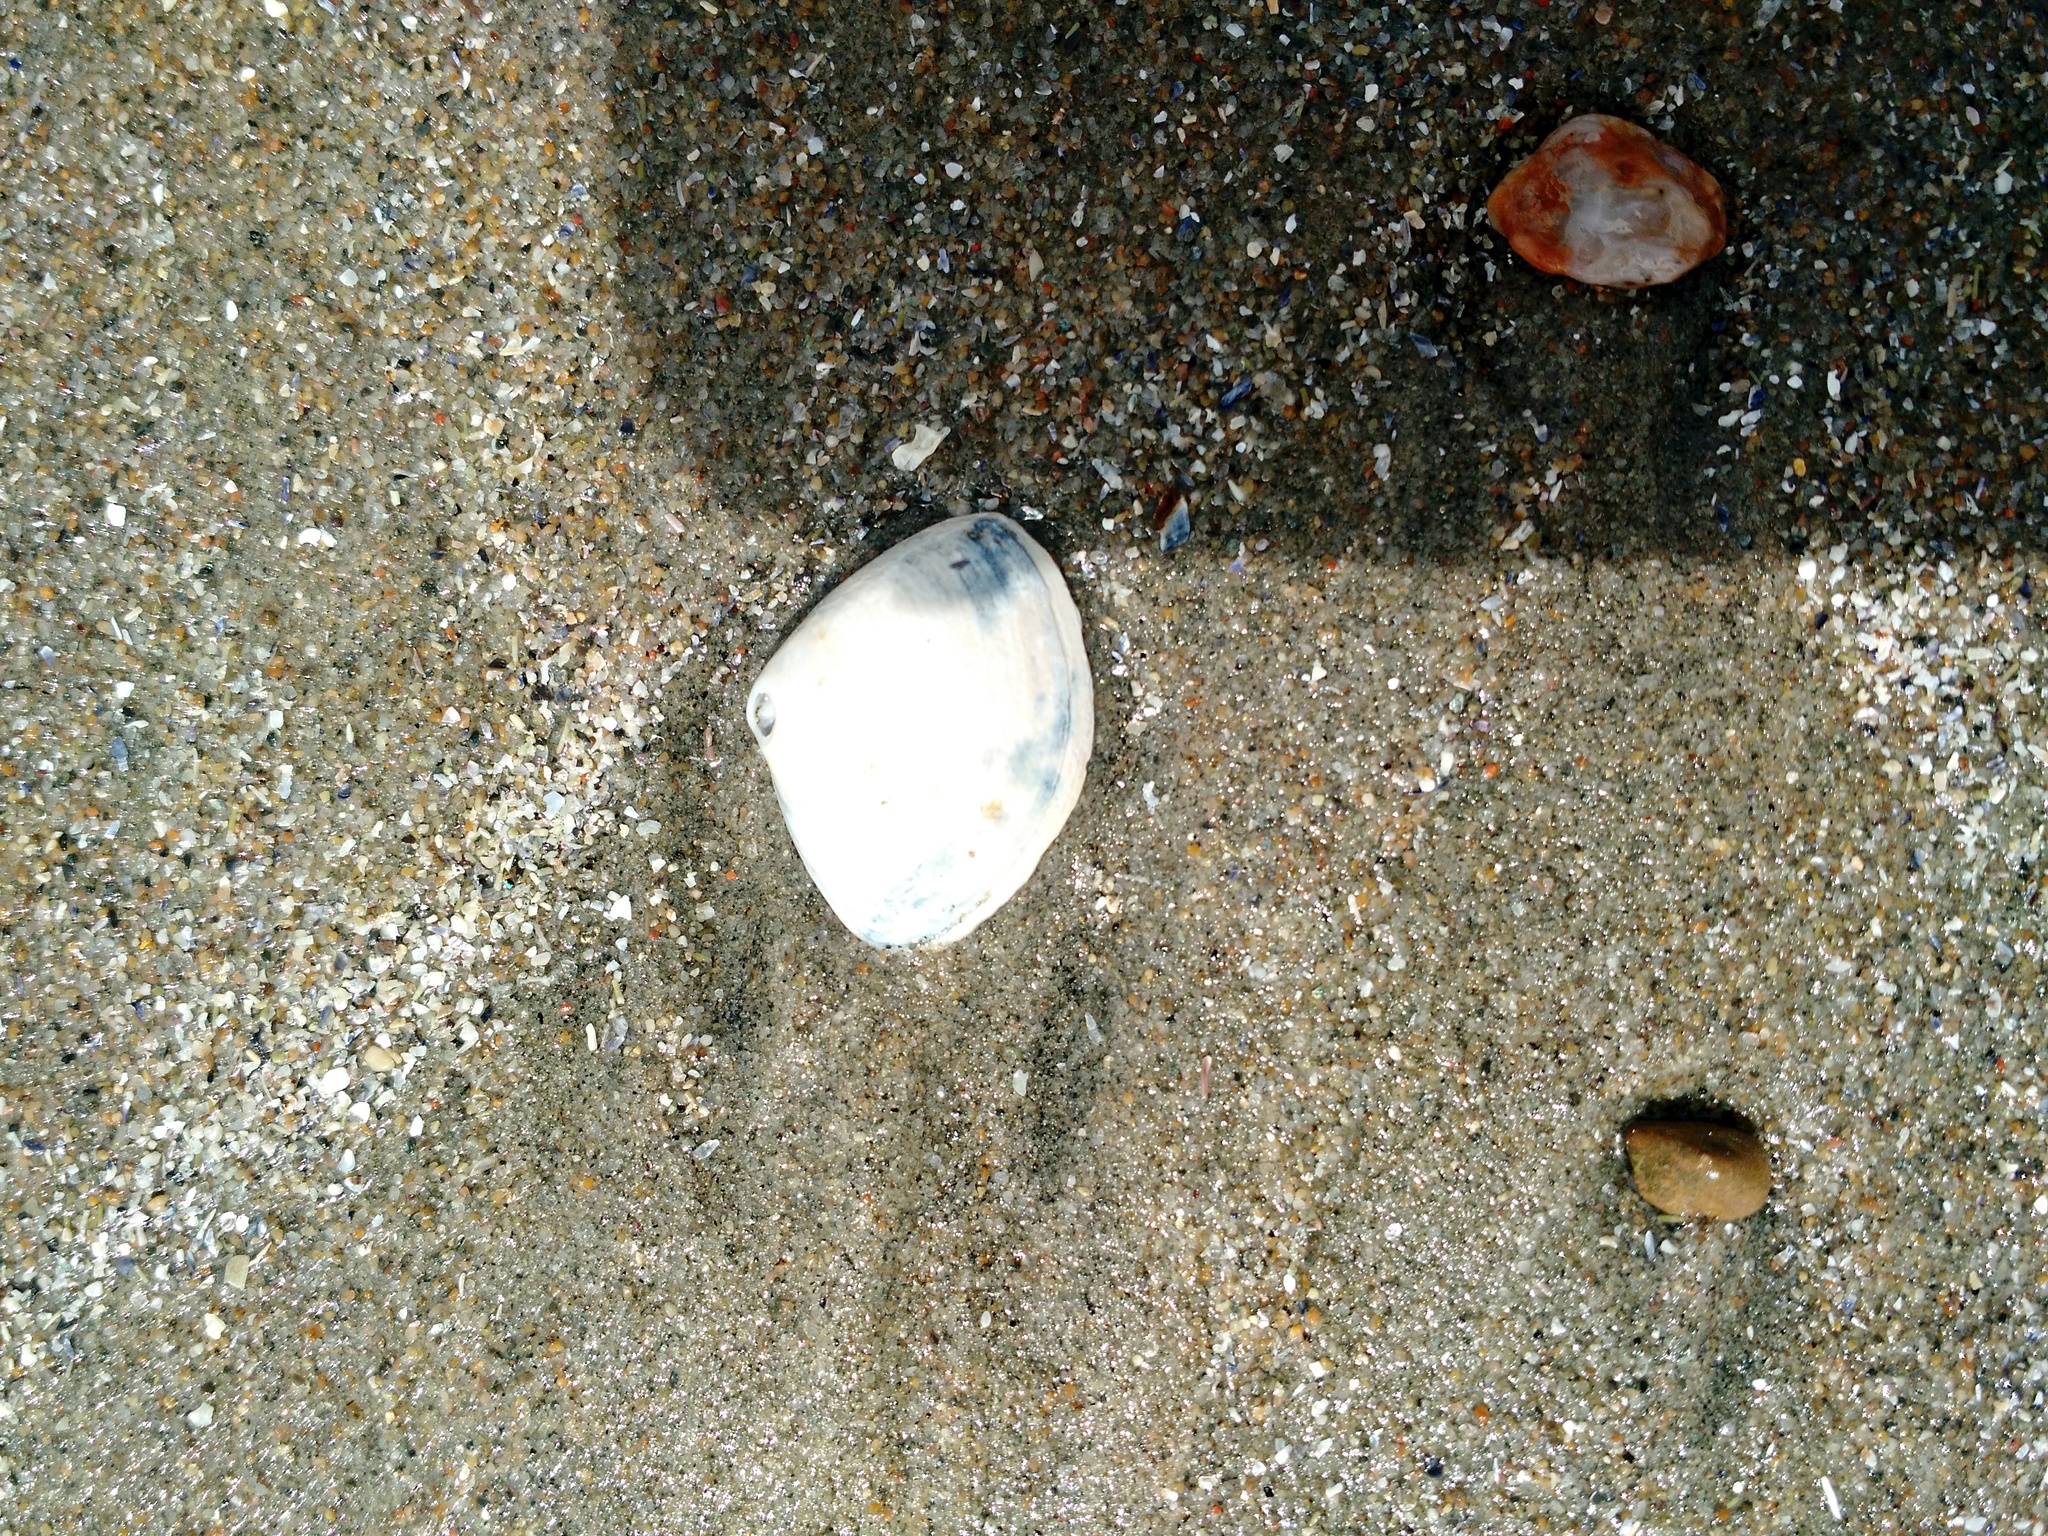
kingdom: Animalia
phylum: Mollusca
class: Bivalvia
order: Venerida
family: Mactridae
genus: Spisula
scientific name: Spisula solidissima
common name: Atlantic surf clam
